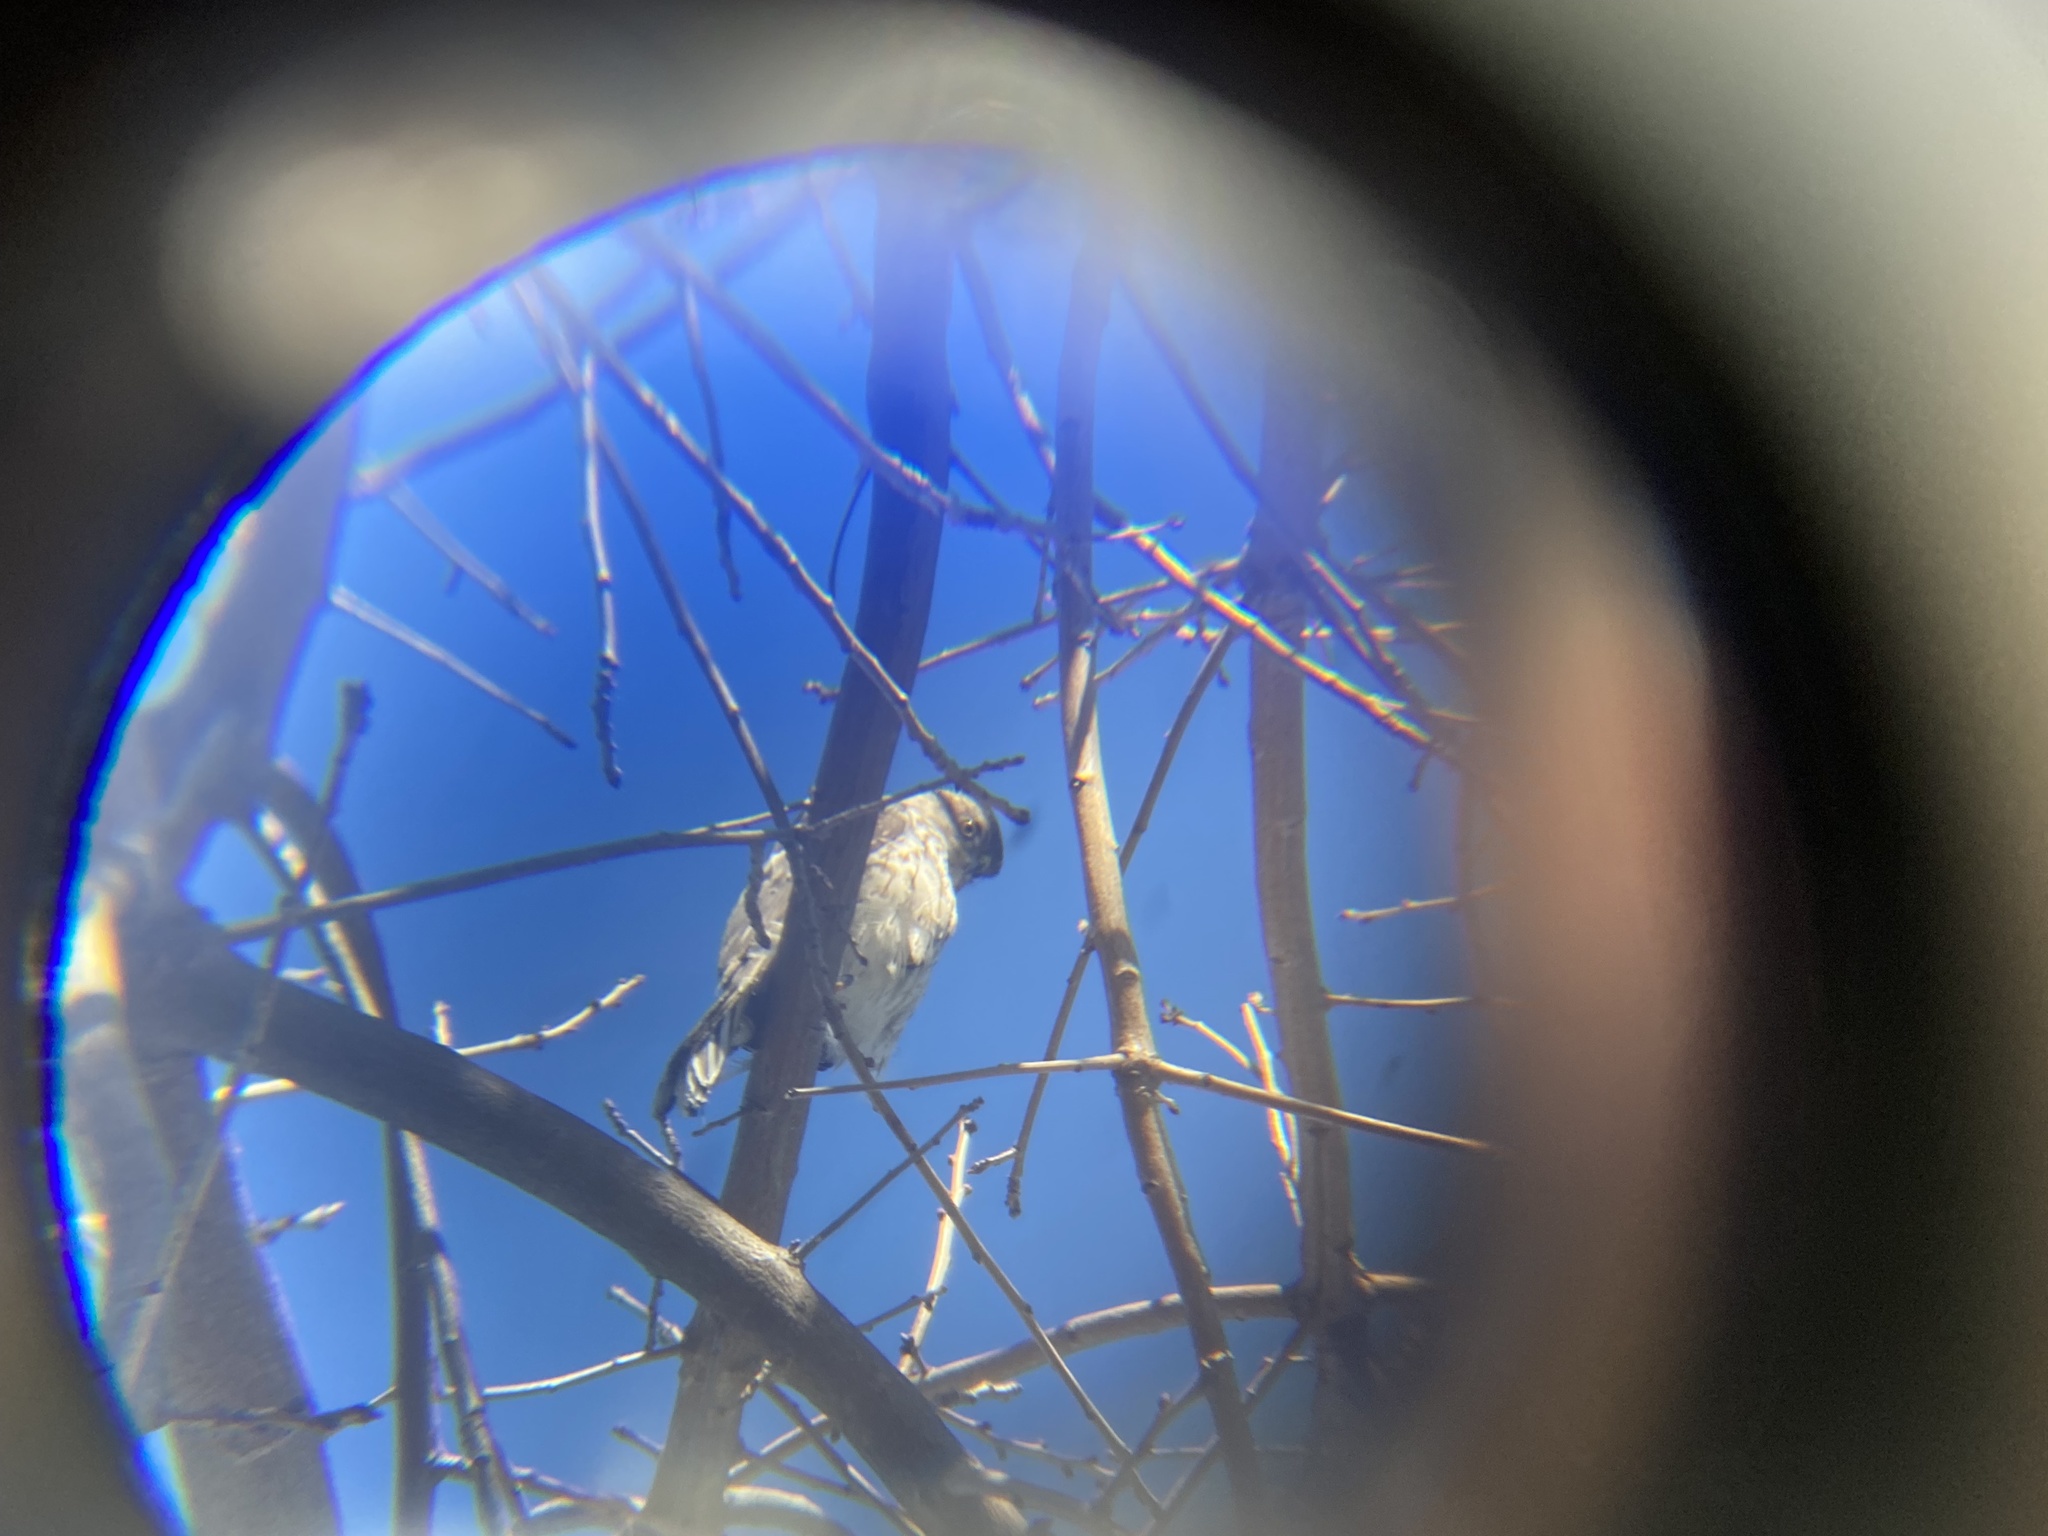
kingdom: Animalia
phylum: Chordata
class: Aves
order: Accipitriformes
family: Accipitridae
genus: Accipiter
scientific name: Accipiter cooperii
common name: Cooper's hawk
